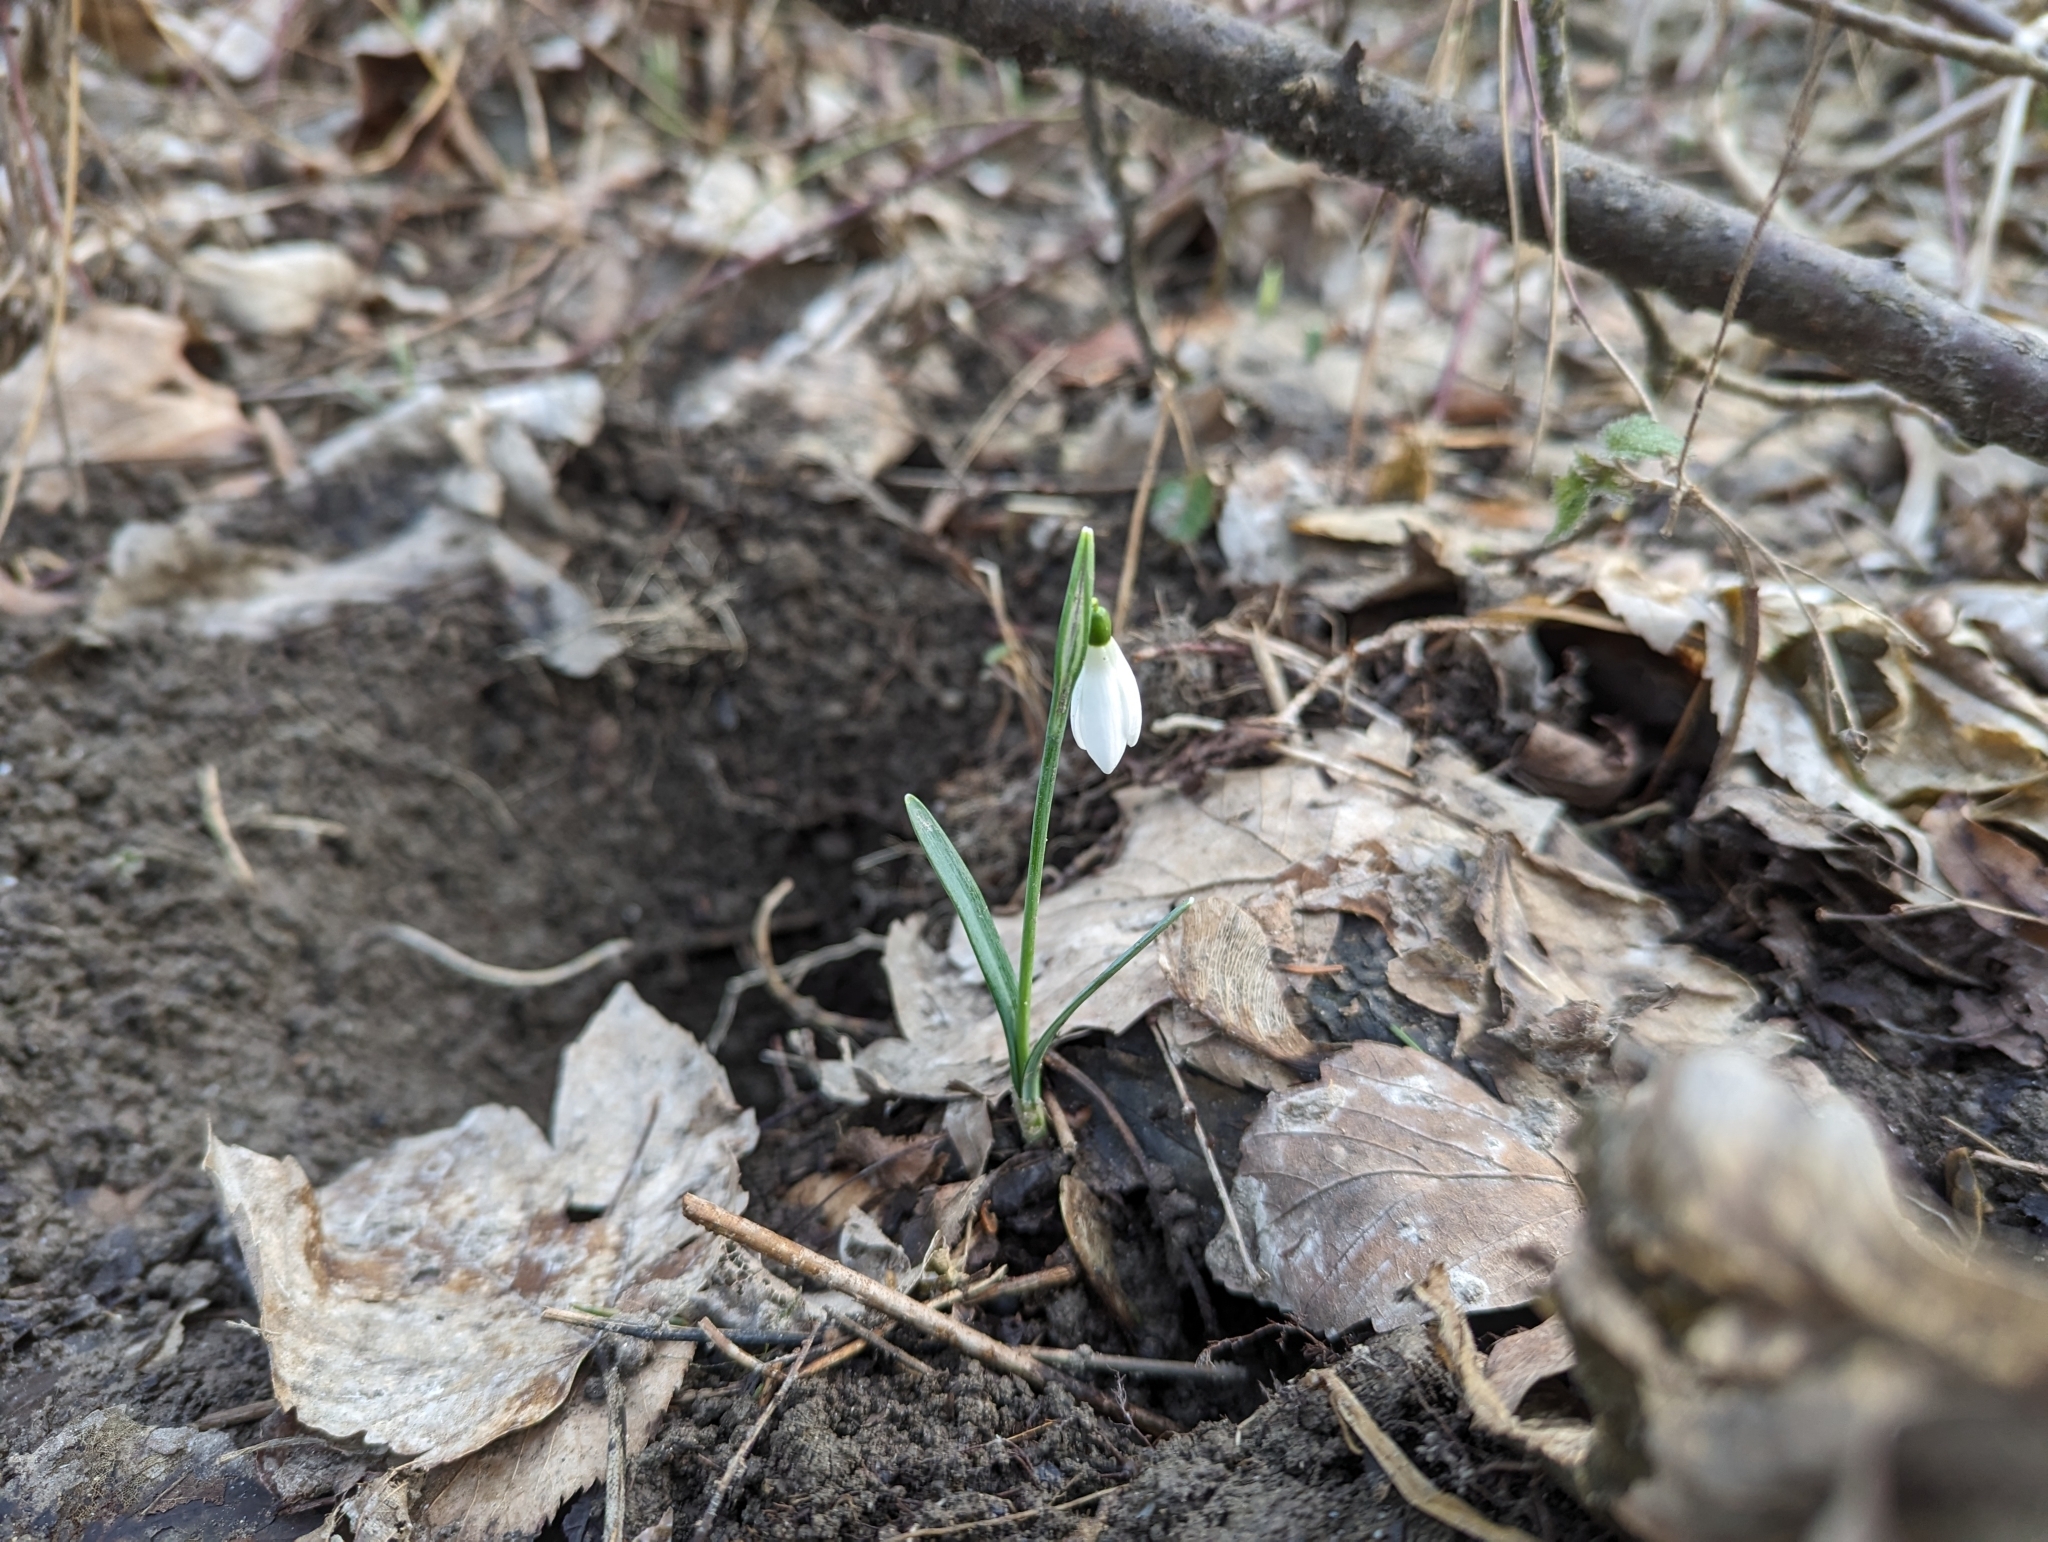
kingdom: Plantae
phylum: Tracheophyta
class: Liliopsida
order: Asparagales
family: Amaryllidaceae
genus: Galanthus
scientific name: Galanthus nivalis
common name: Snowdrop
